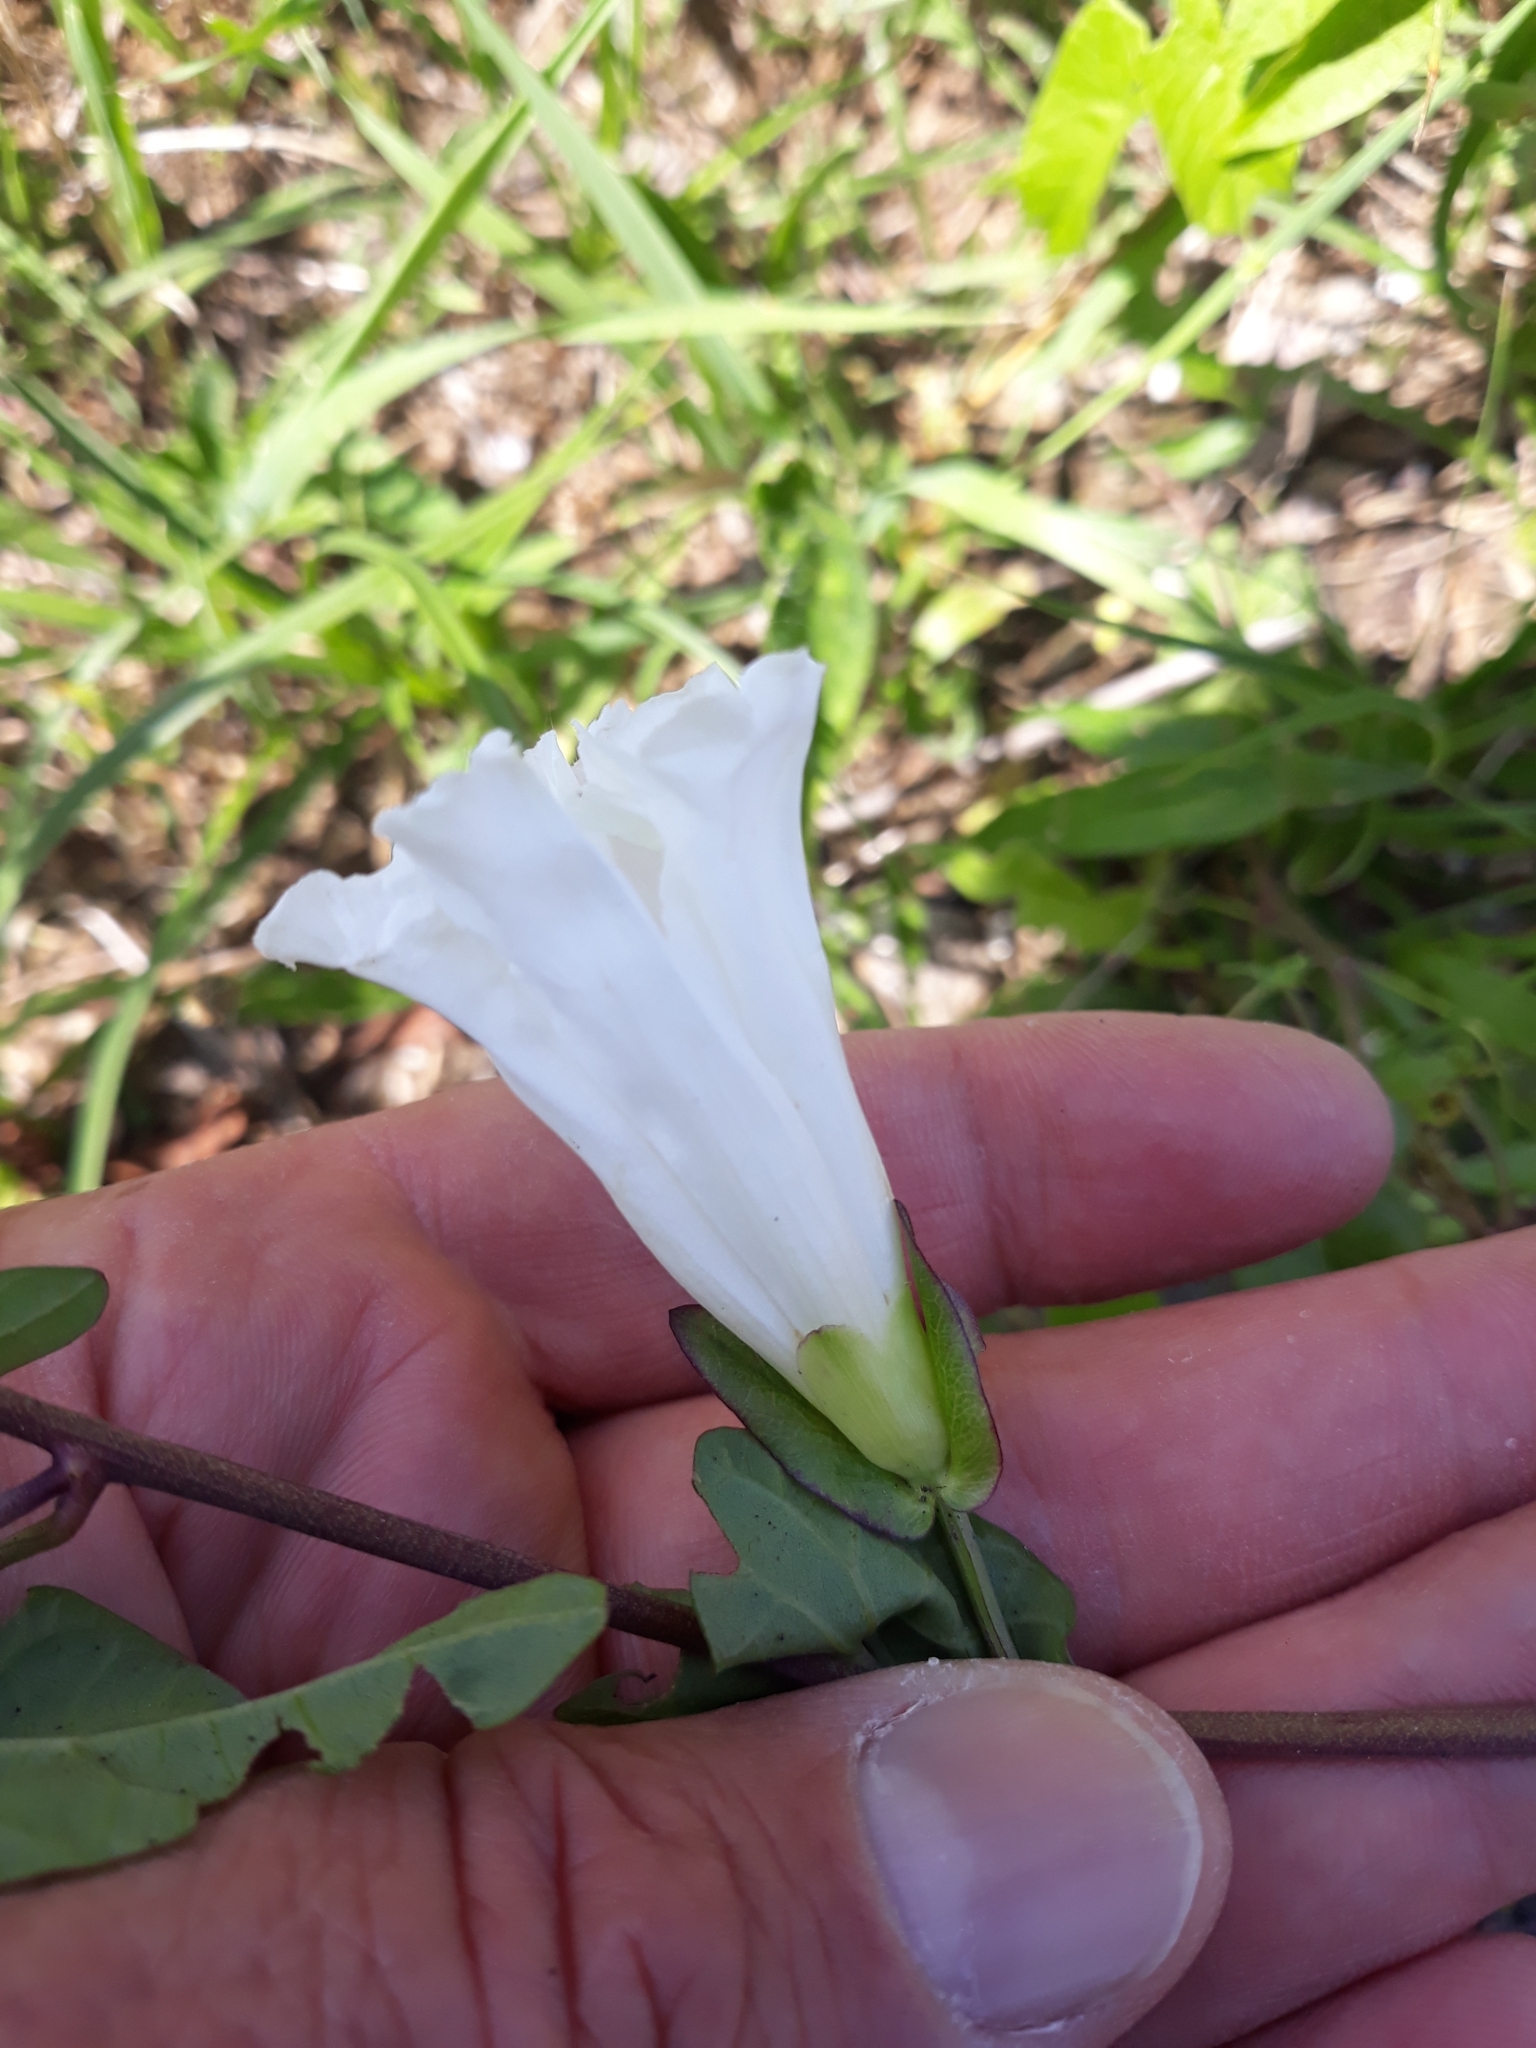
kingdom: Plantae
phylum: Tracheophyta
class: Magnoliopsida
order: Solanales
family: Convolvulaceae
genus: Calystegia
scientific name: Calystegia sepium
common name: Hedge bindweed
